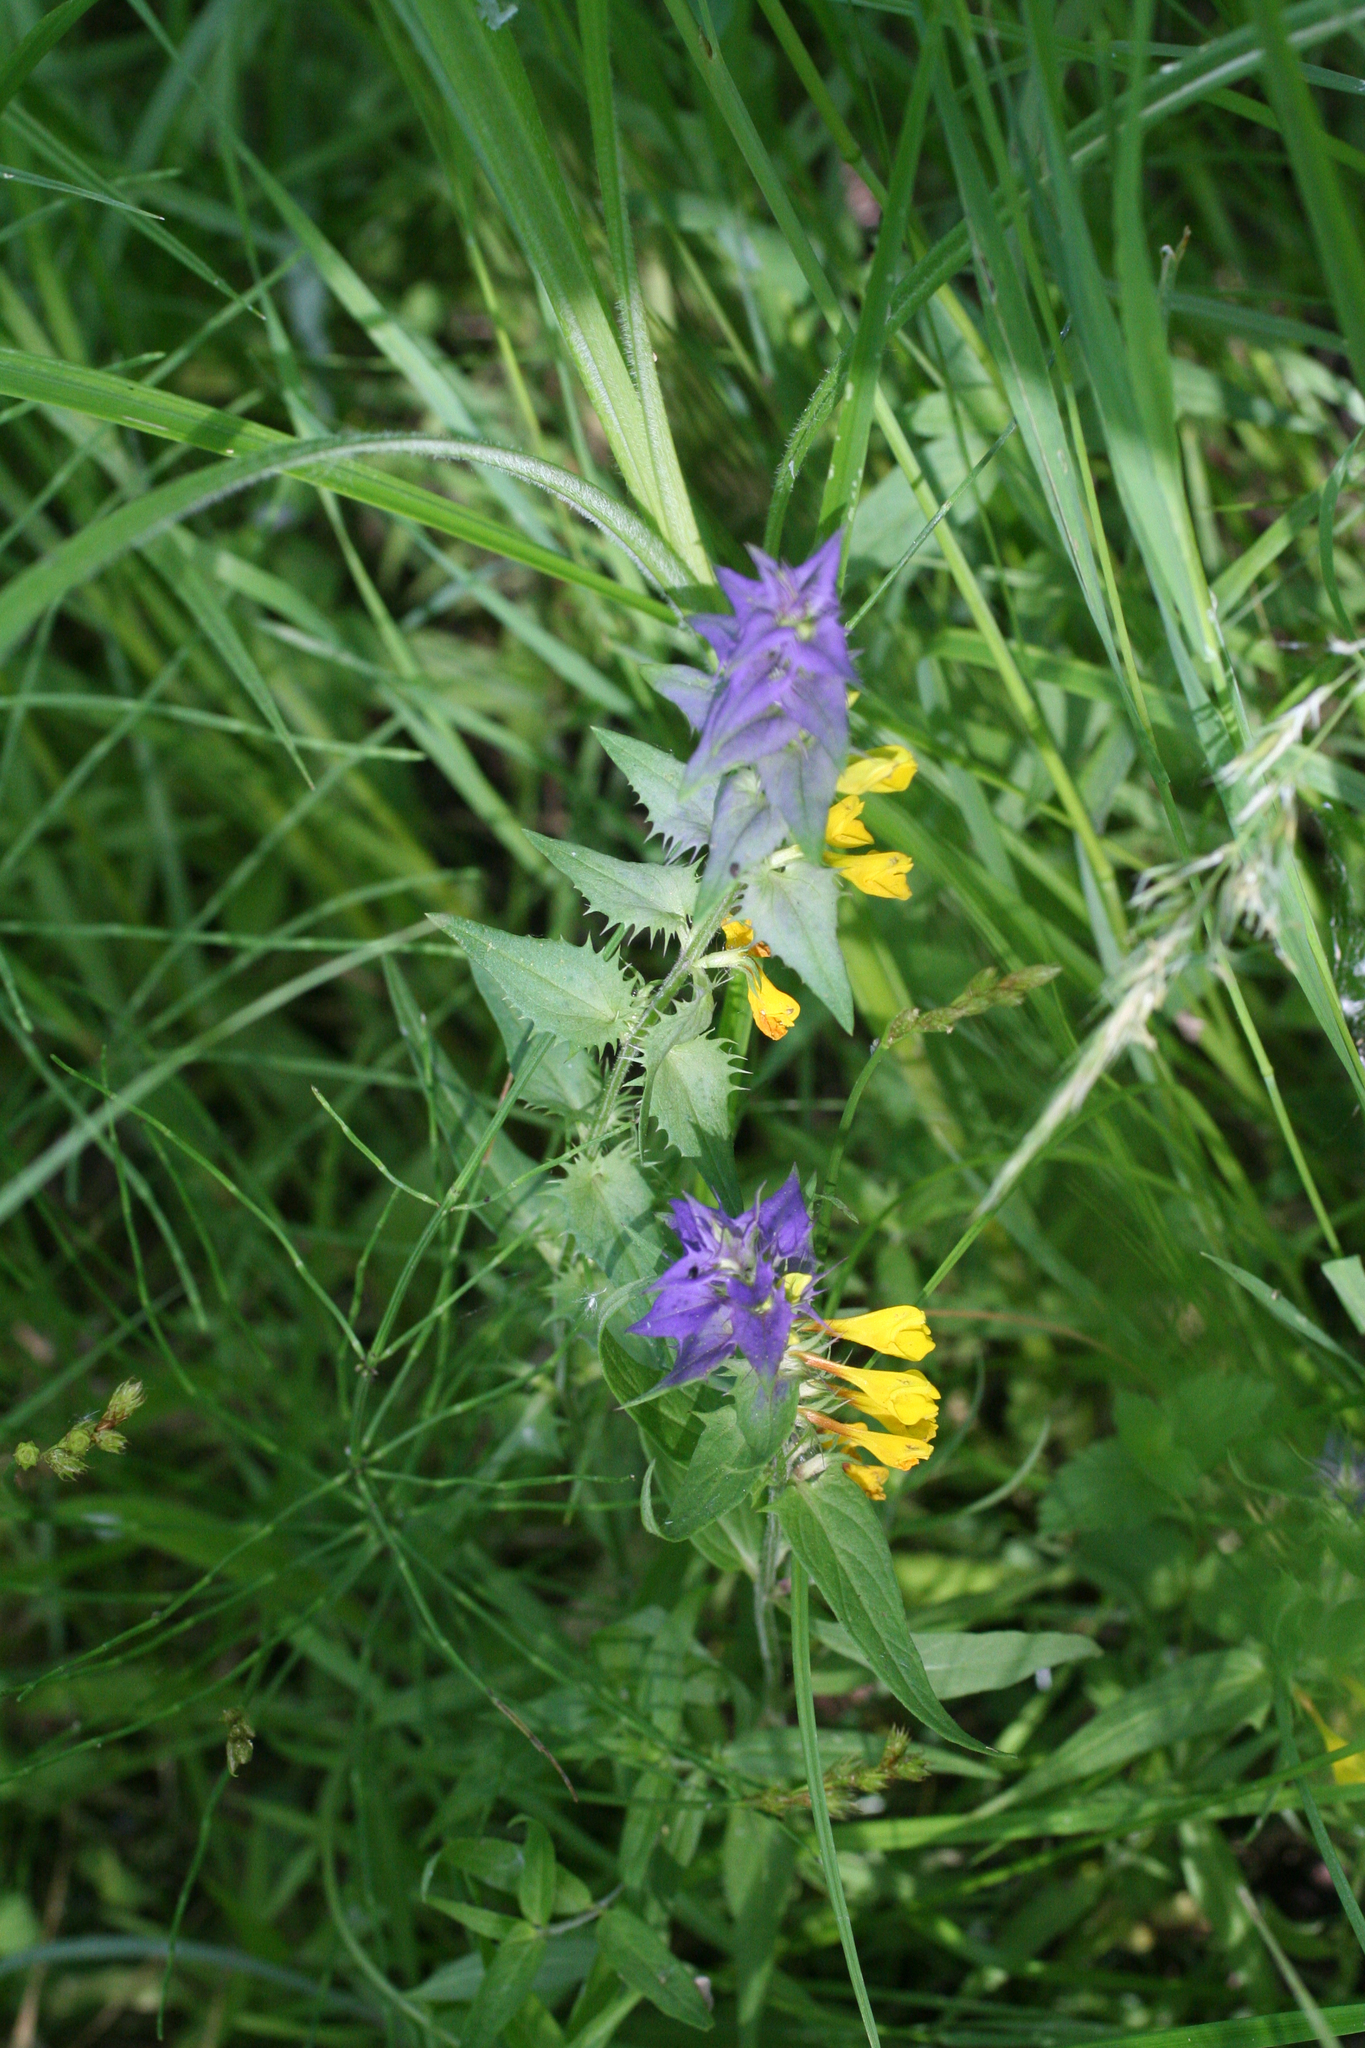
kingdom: Plantae
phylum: Tracheophyta
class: Magnoliopsida
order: Lamiales
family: Orobanchaceae
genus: Melampyrum
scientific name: Melampyrum nemorosum
